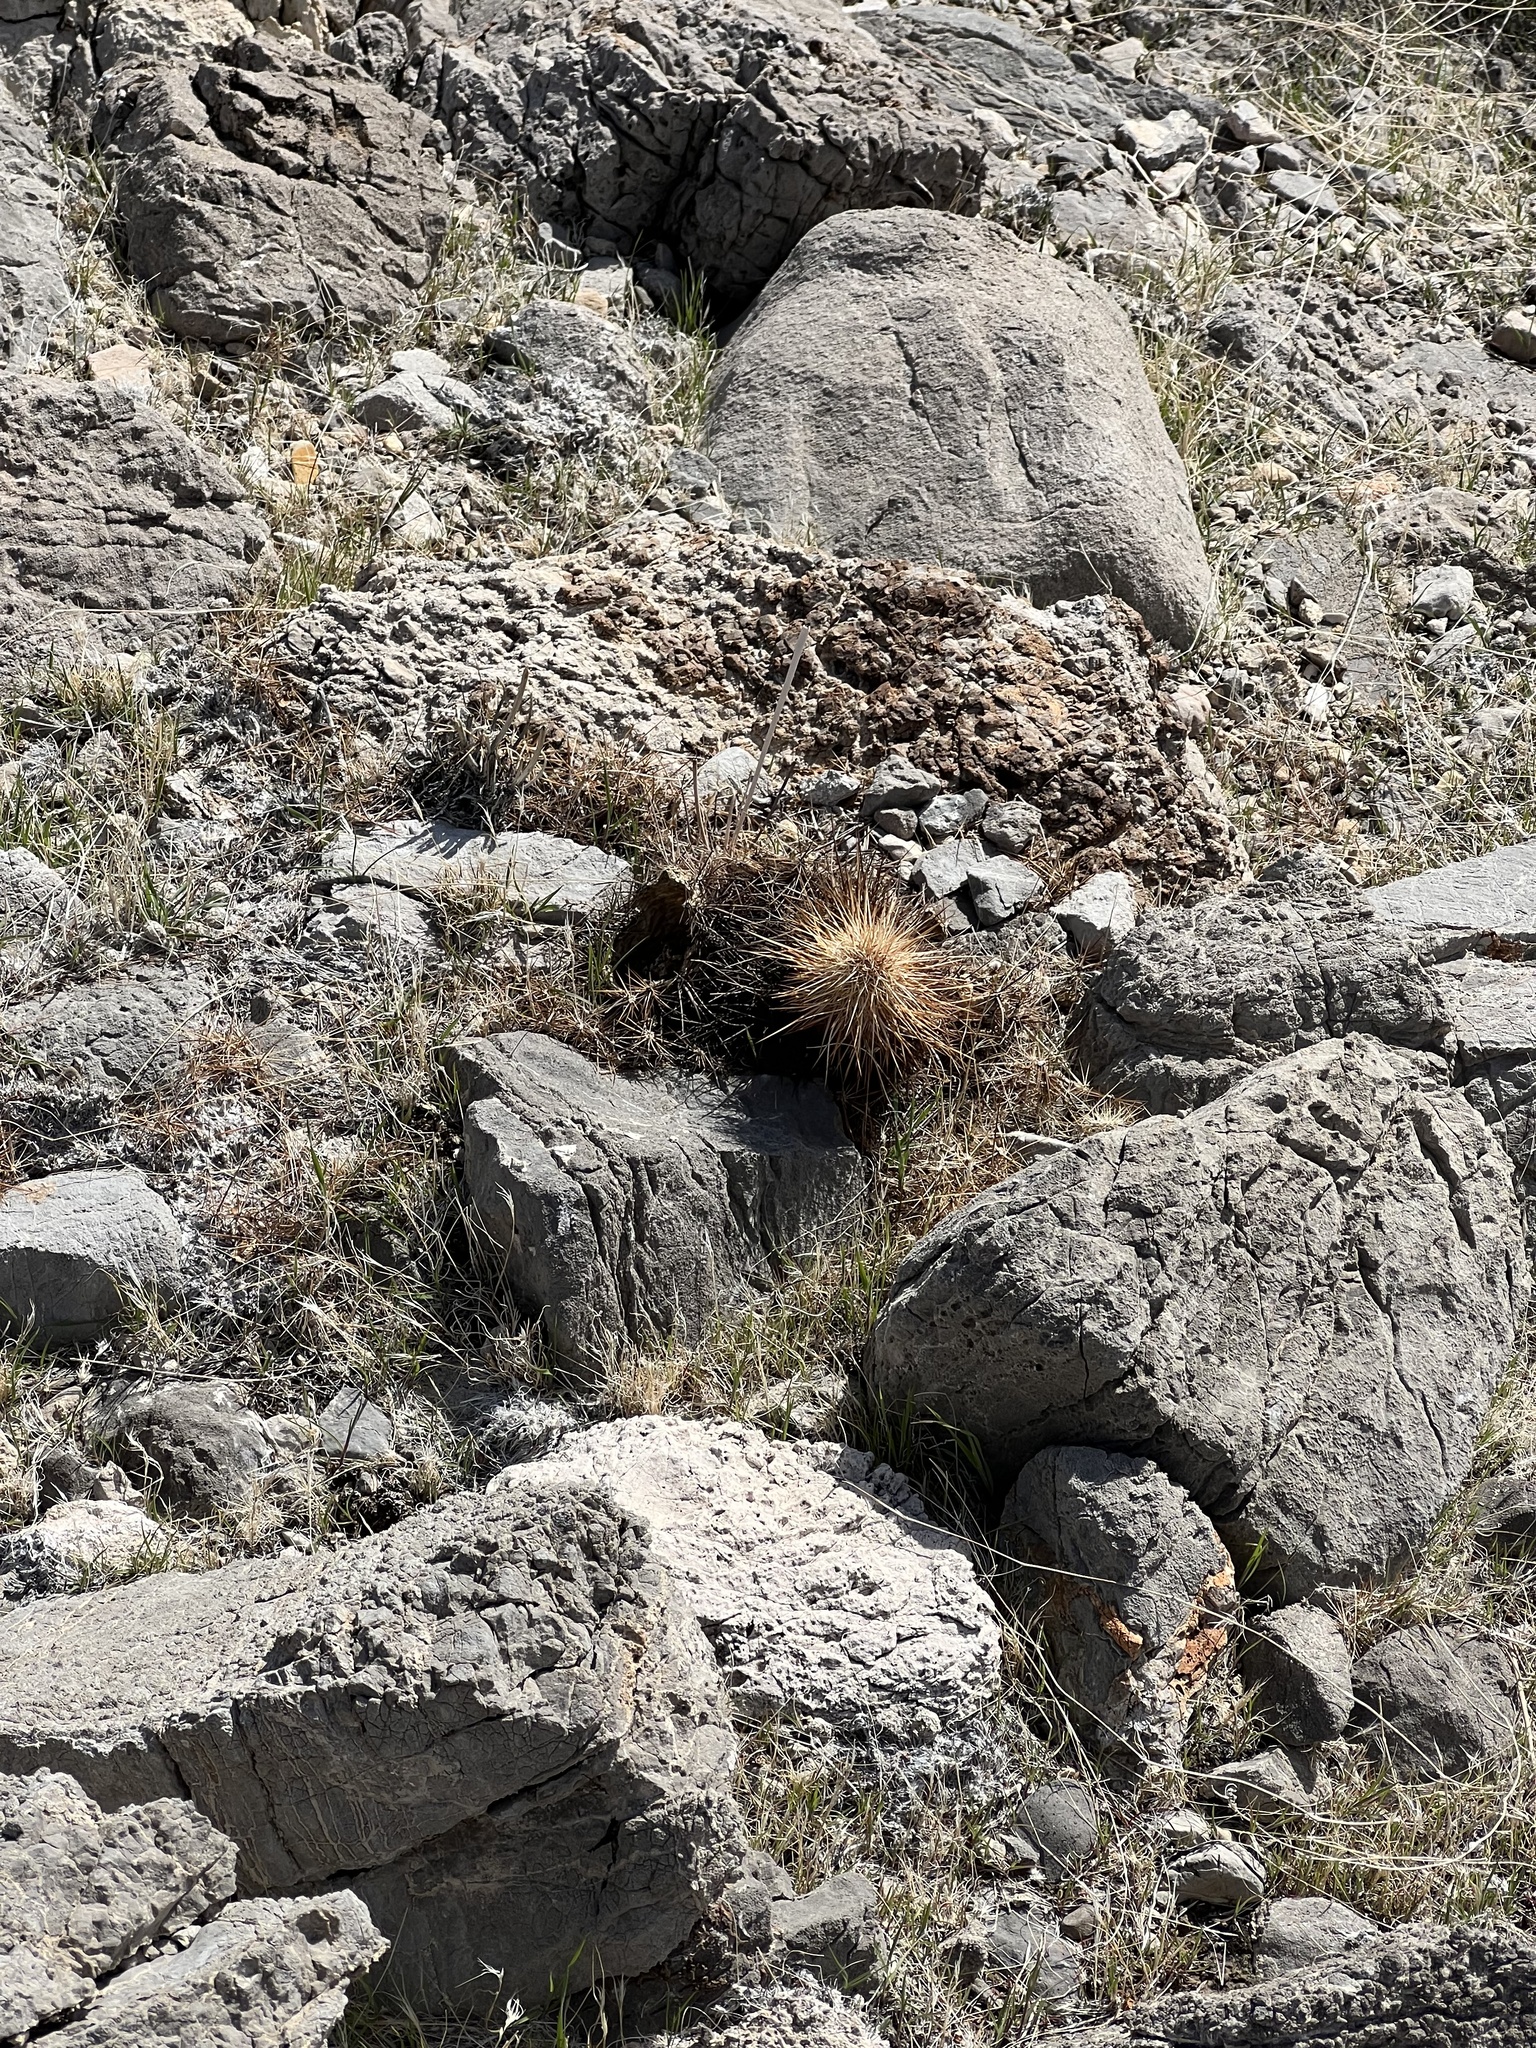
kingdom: Plantae
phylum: Tracheophyta
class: Magnoliopsida
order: Caryophyllales
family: Cactaceae
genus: Echinocereus
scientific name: Echinocereus engelmannii
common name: Engelmann's hedgehog cactus
